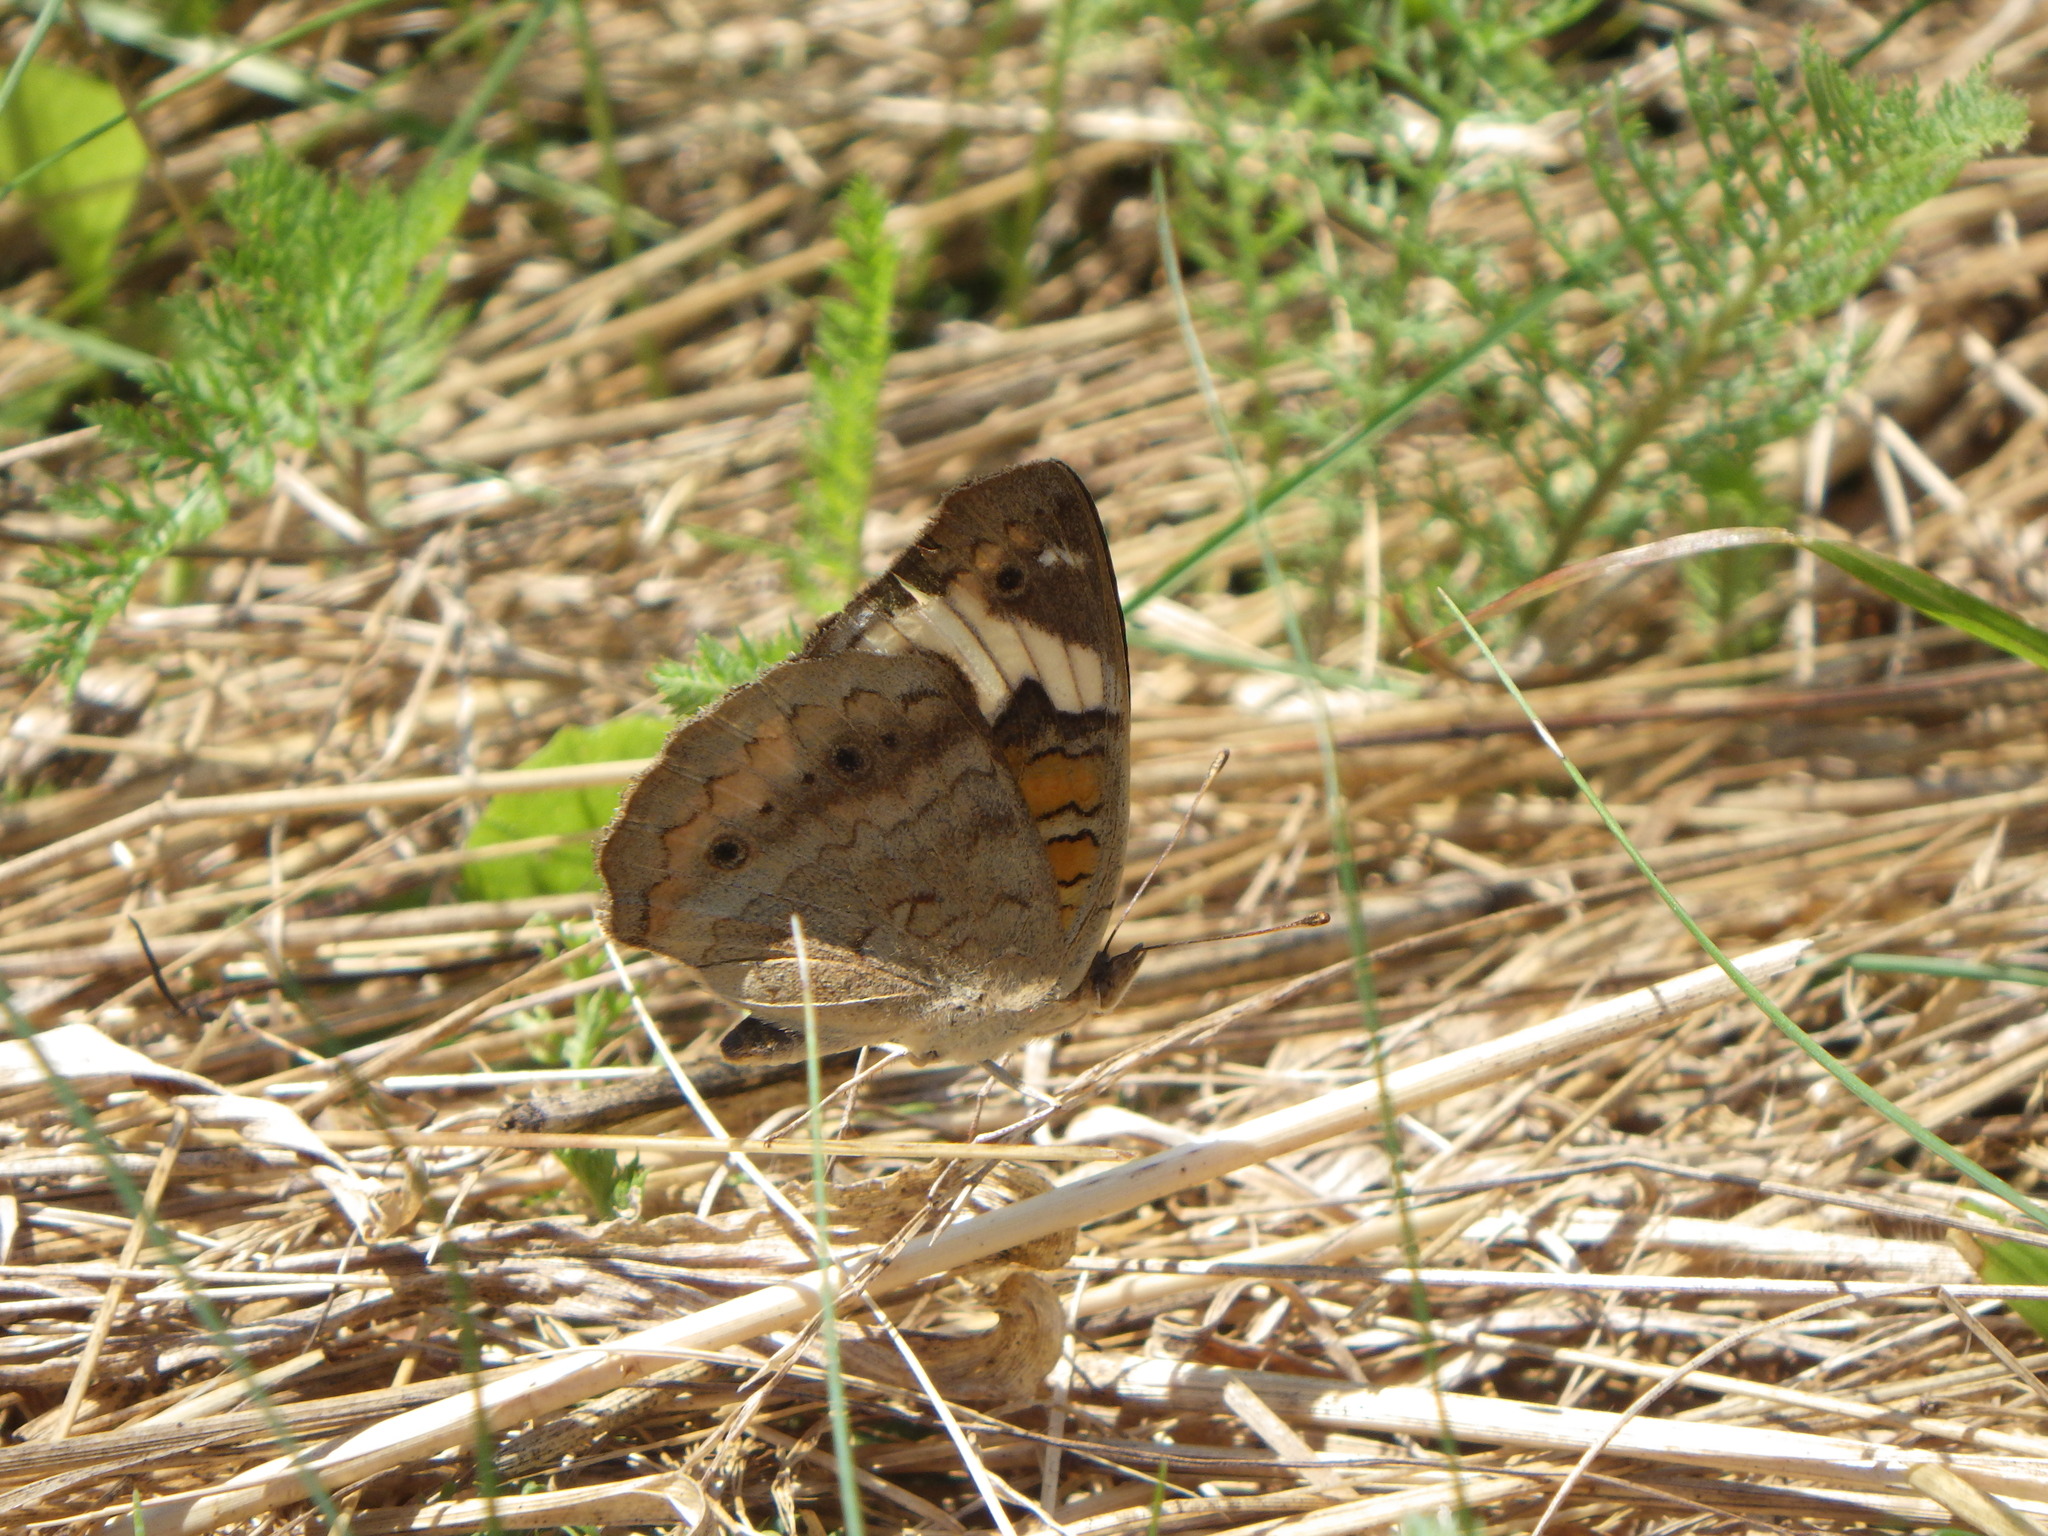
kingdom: Animalia
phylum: Arthropoda
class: Insecta
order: Lepidoptera
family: Nymphalidae
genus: Junonia
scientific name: Junonia coenia
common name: Common buckeye
